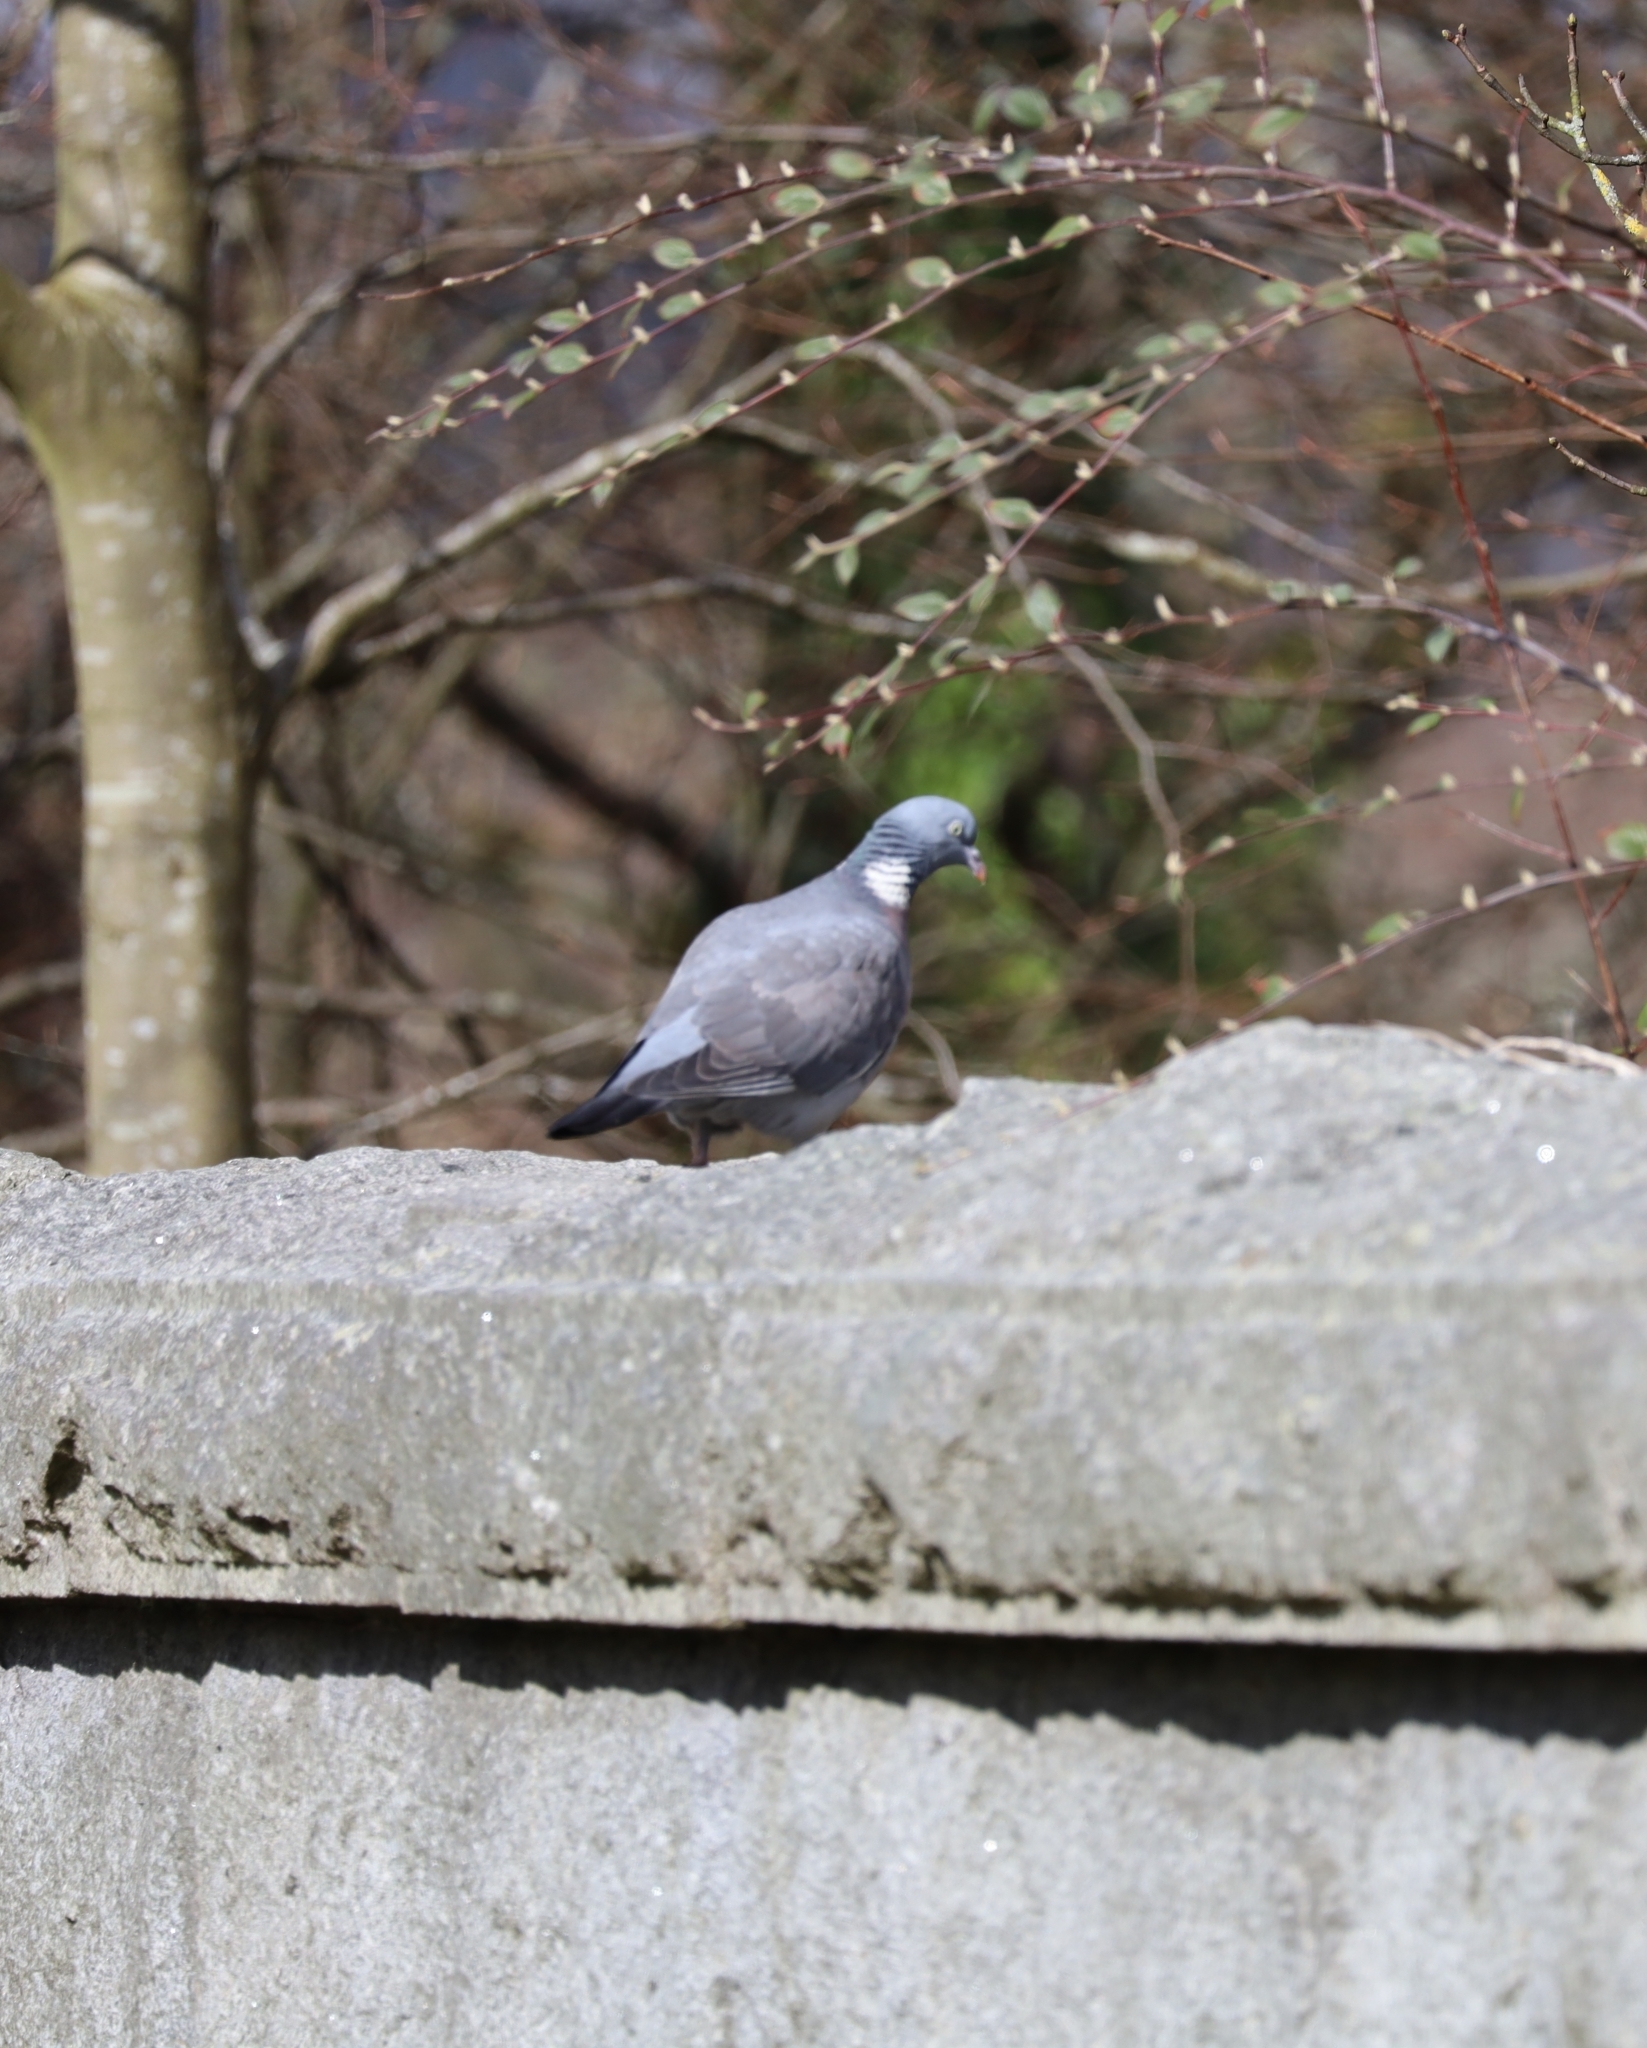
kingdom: Animalia
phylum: Chordata
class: Aves
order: Columbiformes
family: Columbidae
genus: Columba
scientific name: Columba palumbus
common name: Common wood pigeon
